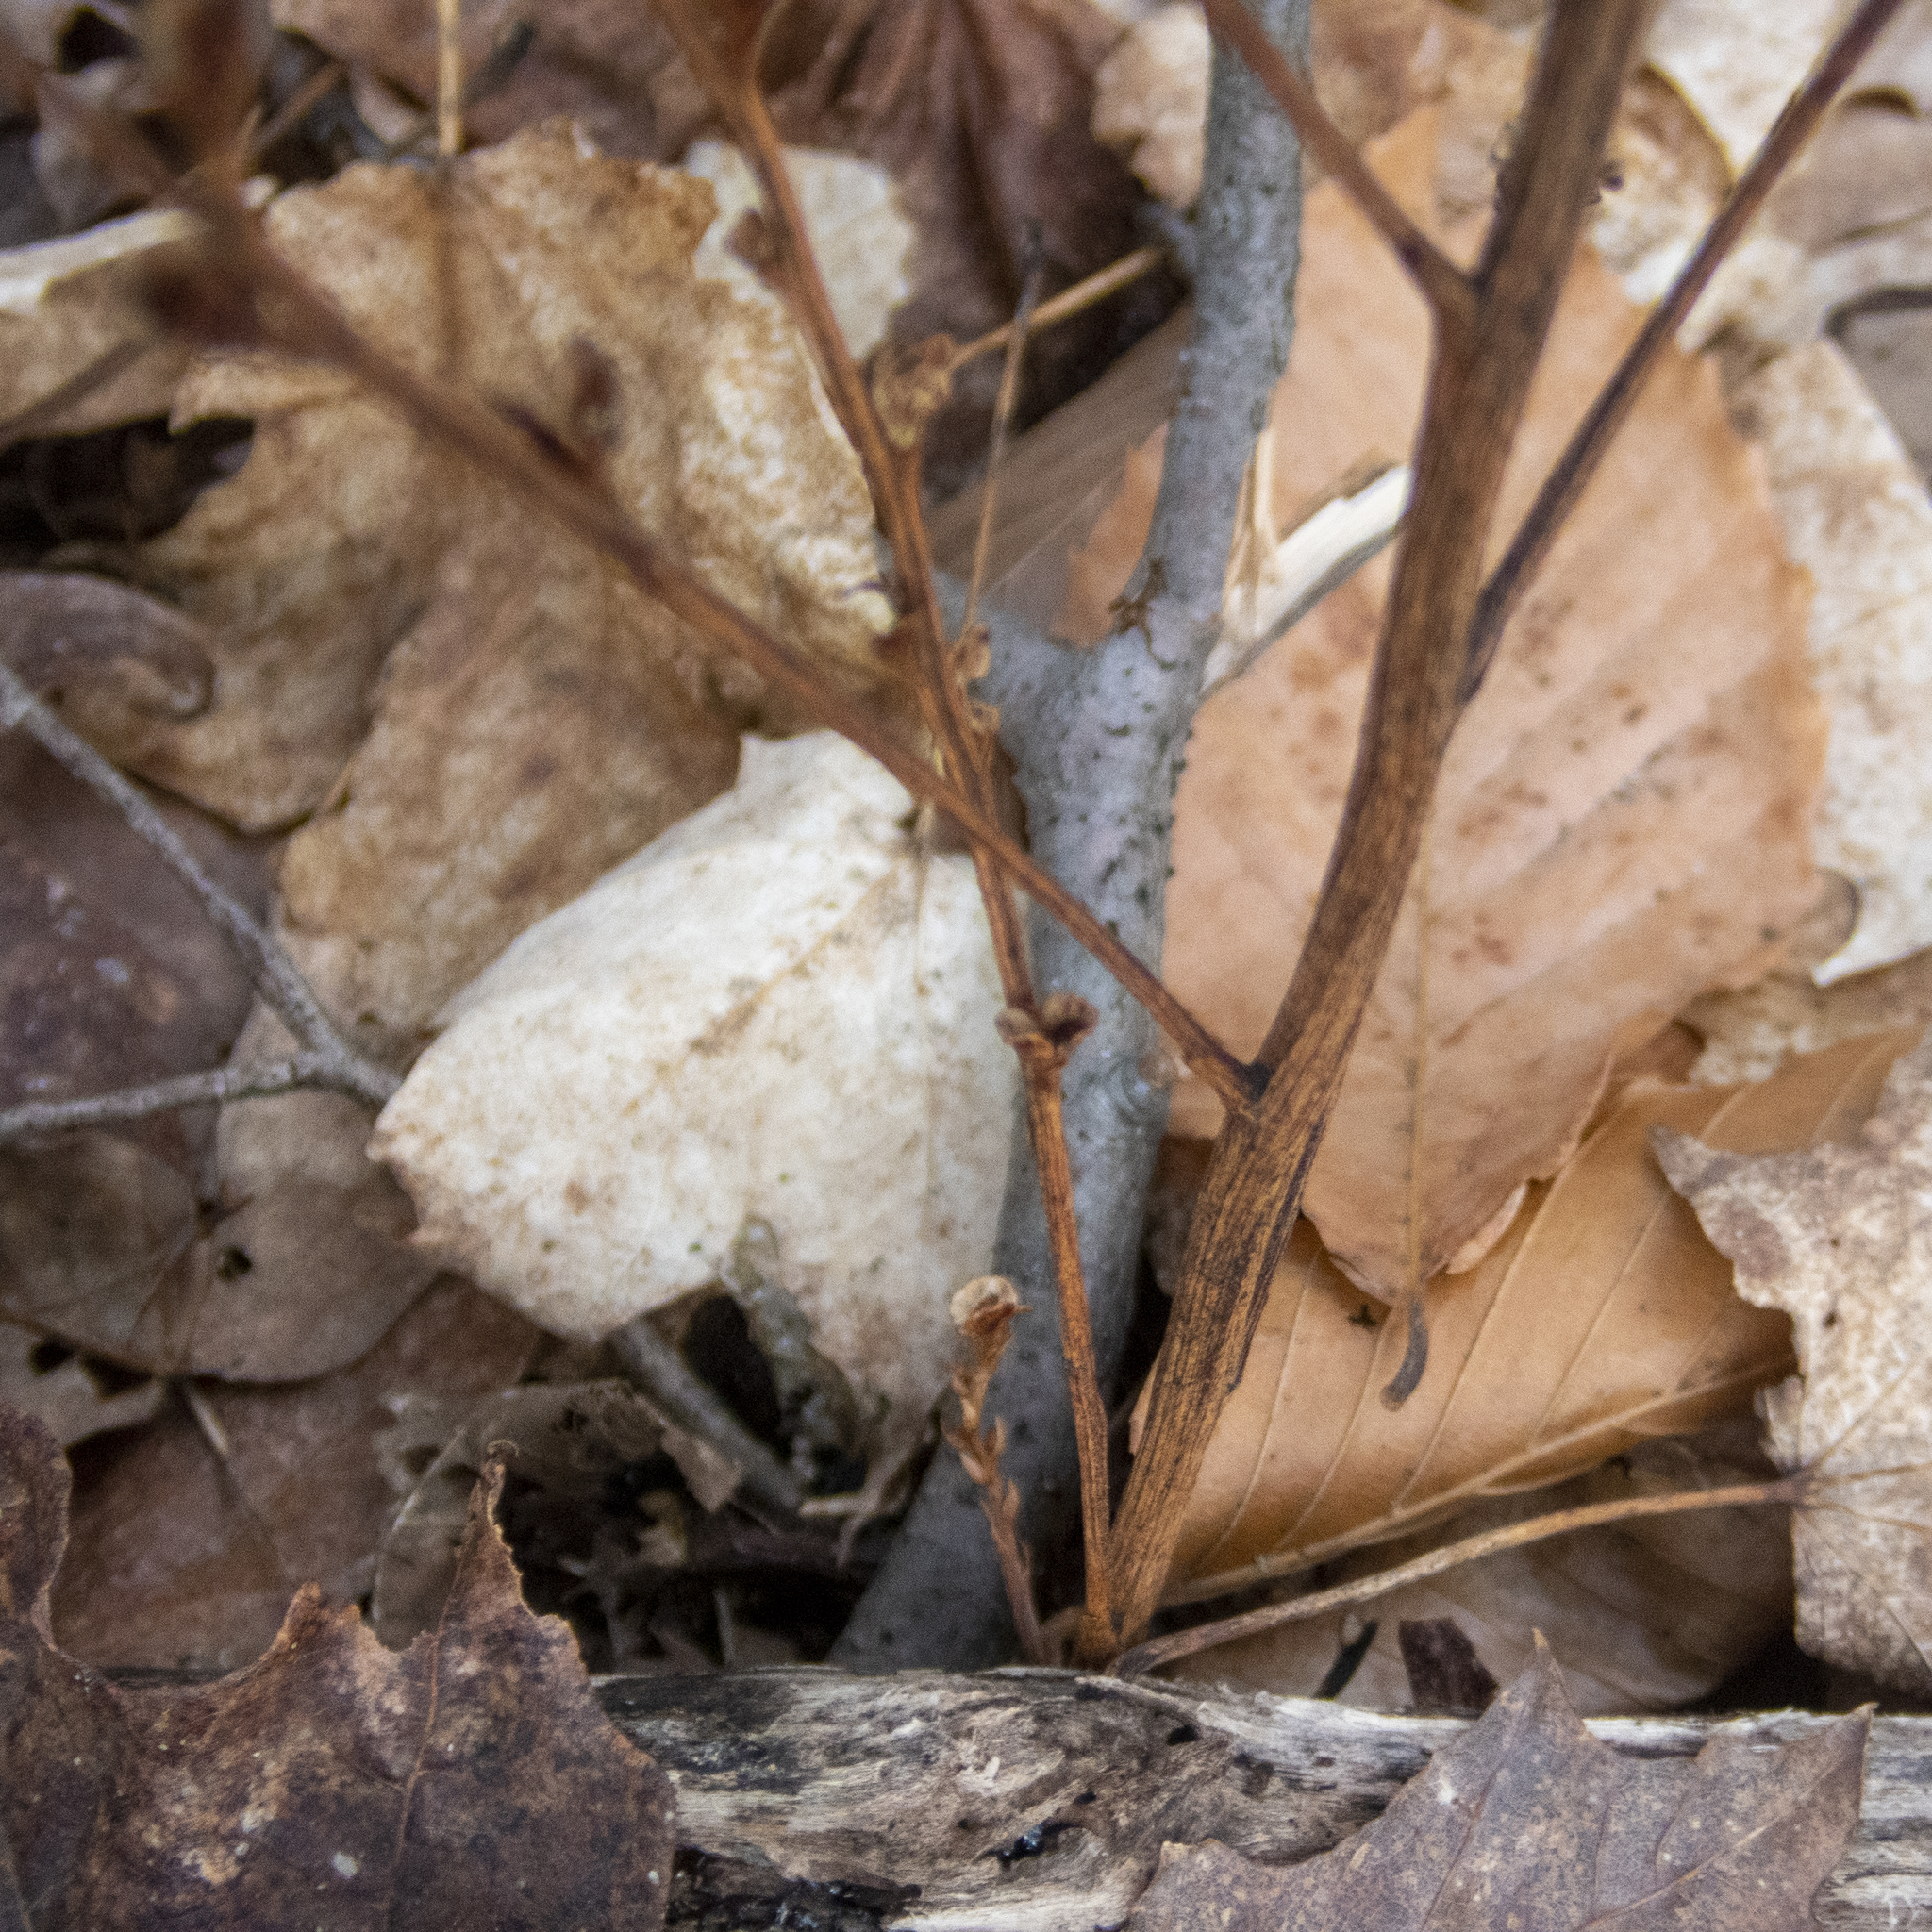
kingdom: Plantae
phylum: Tracheophyta
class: Magnoliopsida
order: Lamiales
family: Orobanchaceae
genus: Epifagus
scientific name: Epifagus virginiana
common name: Beechdrops
